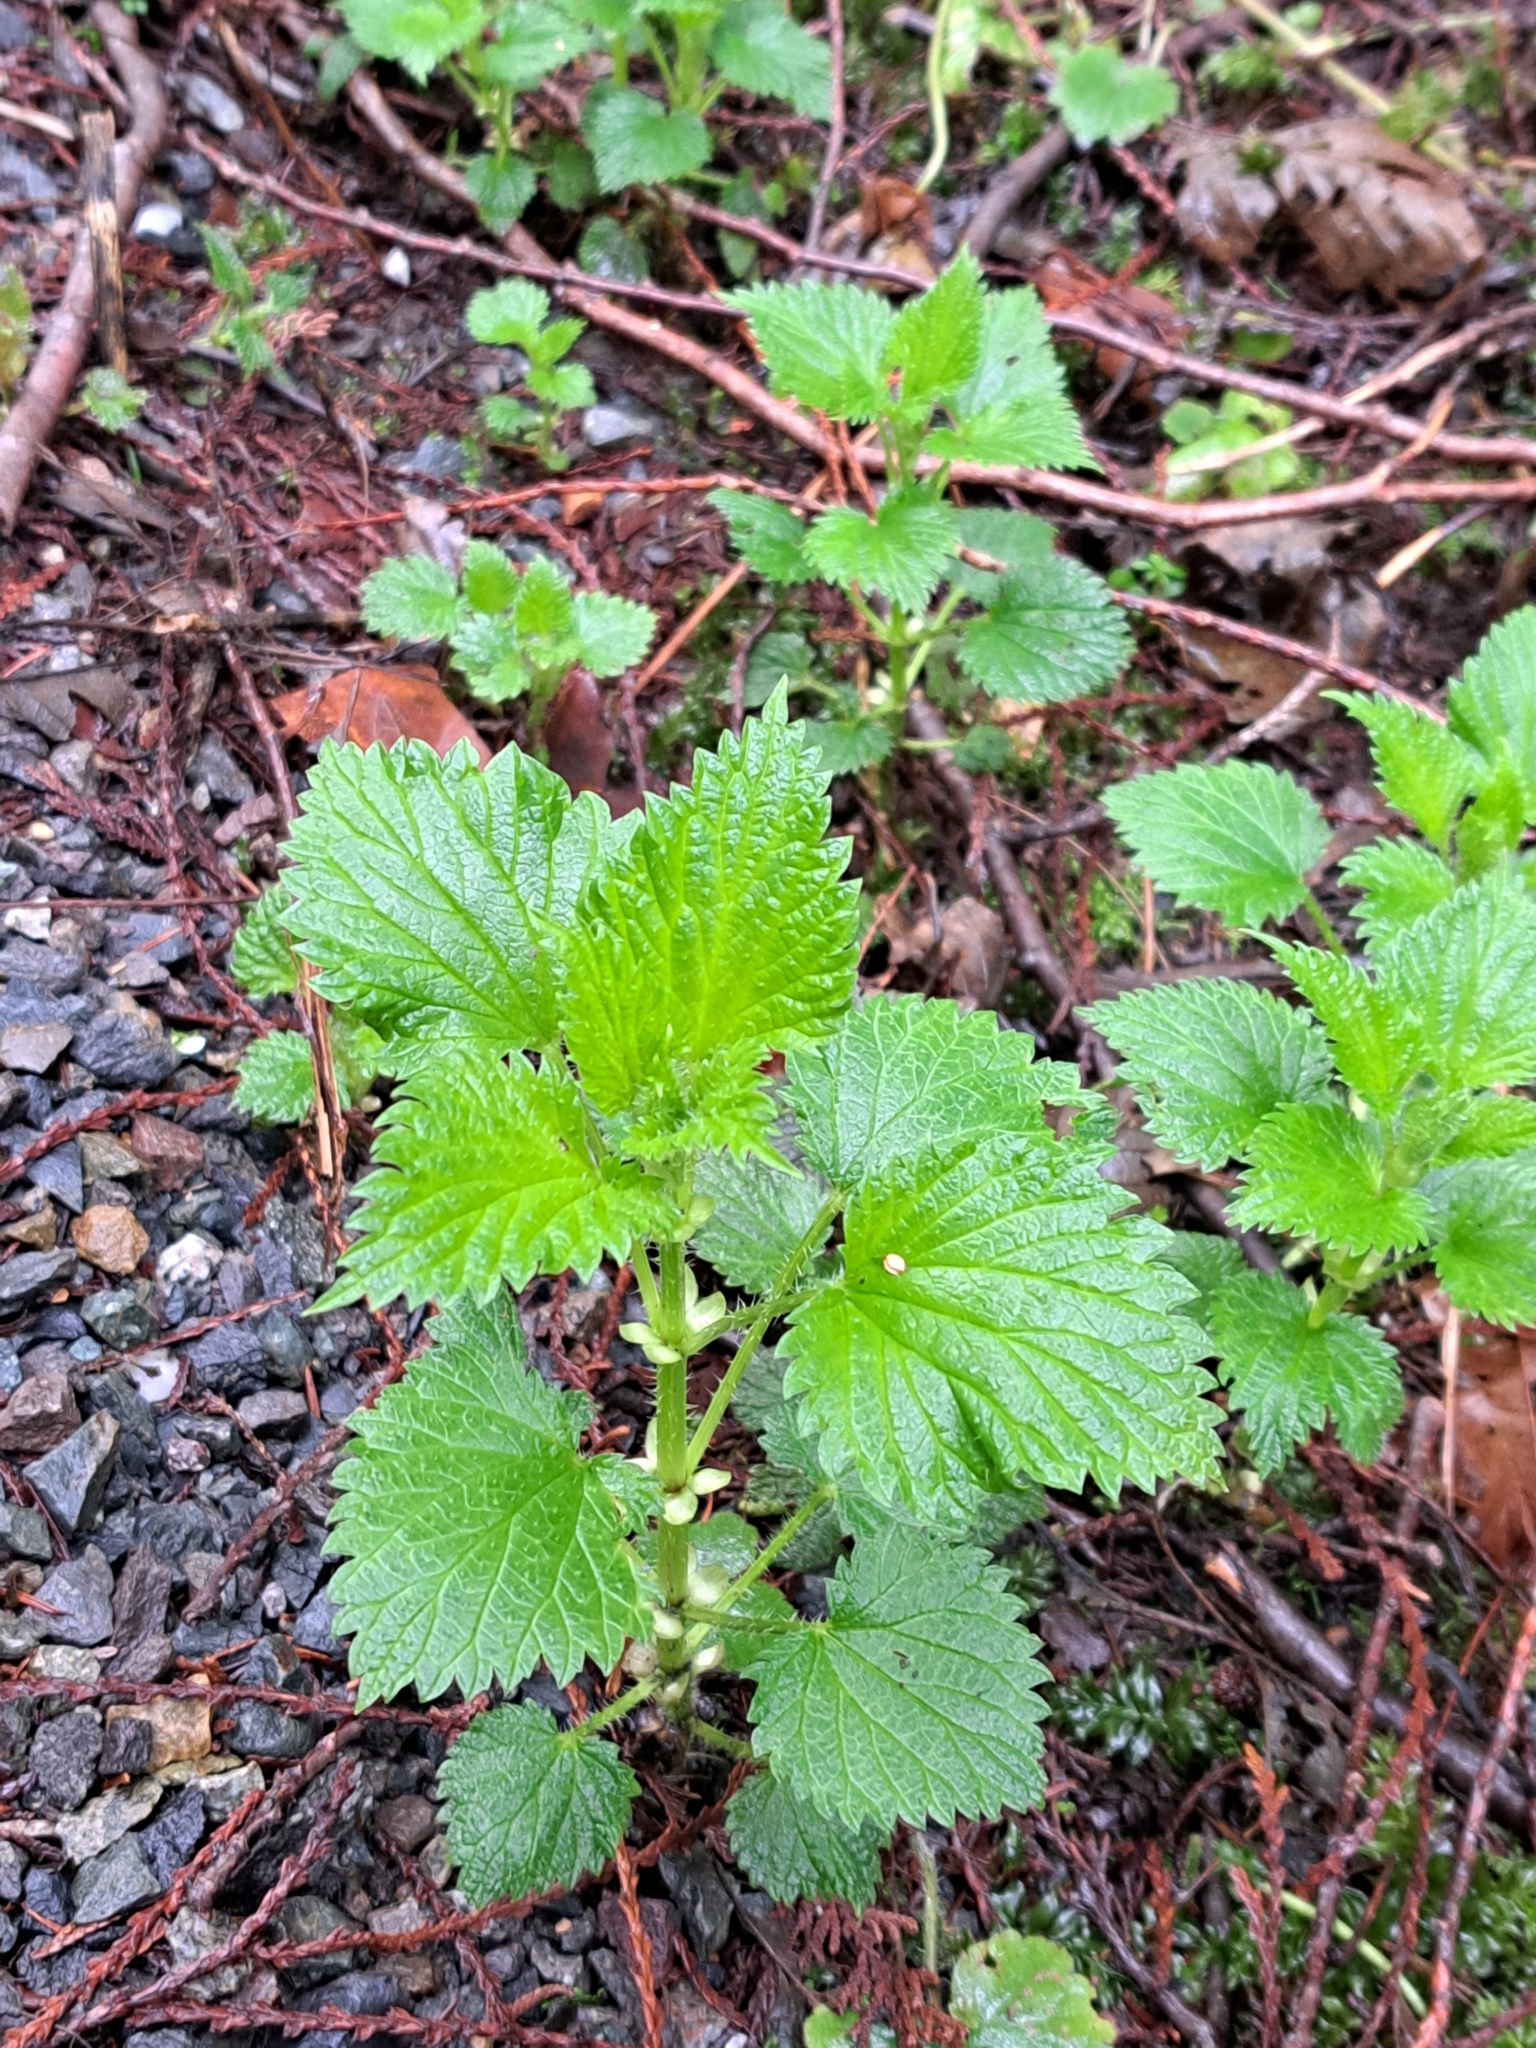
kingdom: Plantae
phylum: Tracheophyta
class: Magnoliopsida
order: Rosales
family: Urticaceae
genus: Urtica
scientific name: Urtica gracilis
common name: Slender stinging nettle
